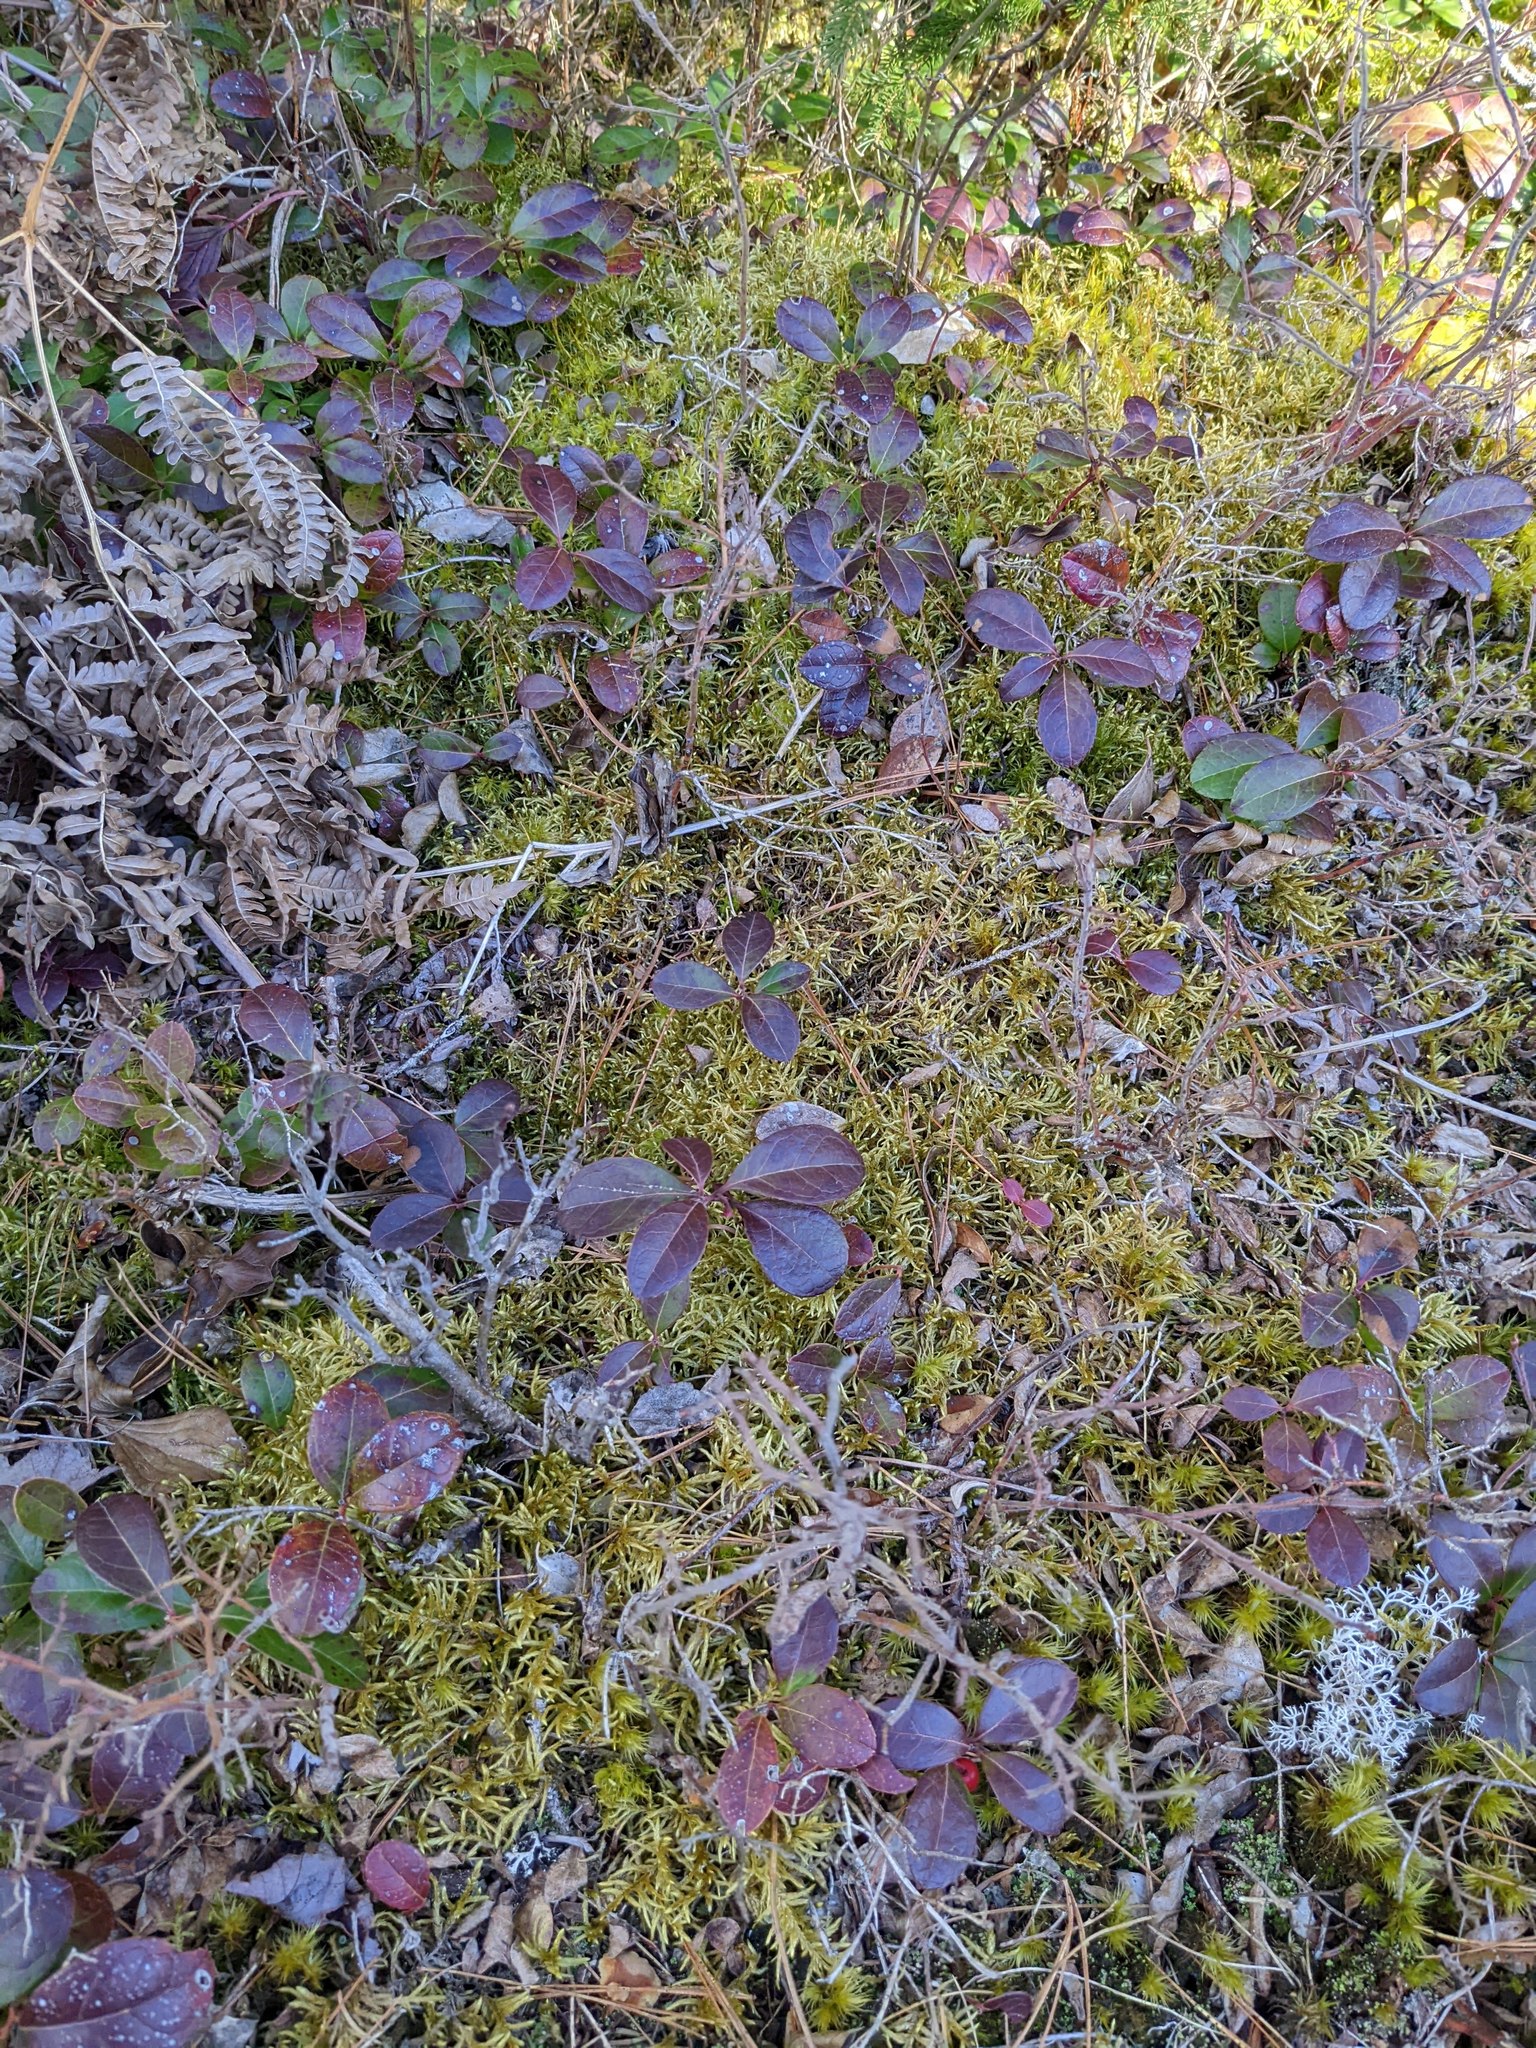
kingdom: Plantae
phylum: Tracheophyta
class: Magnoliopsida
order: Ericales
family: Ericaceae
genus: Gaultheria
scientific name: Gaultheria procumbens
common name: Checkerberry
